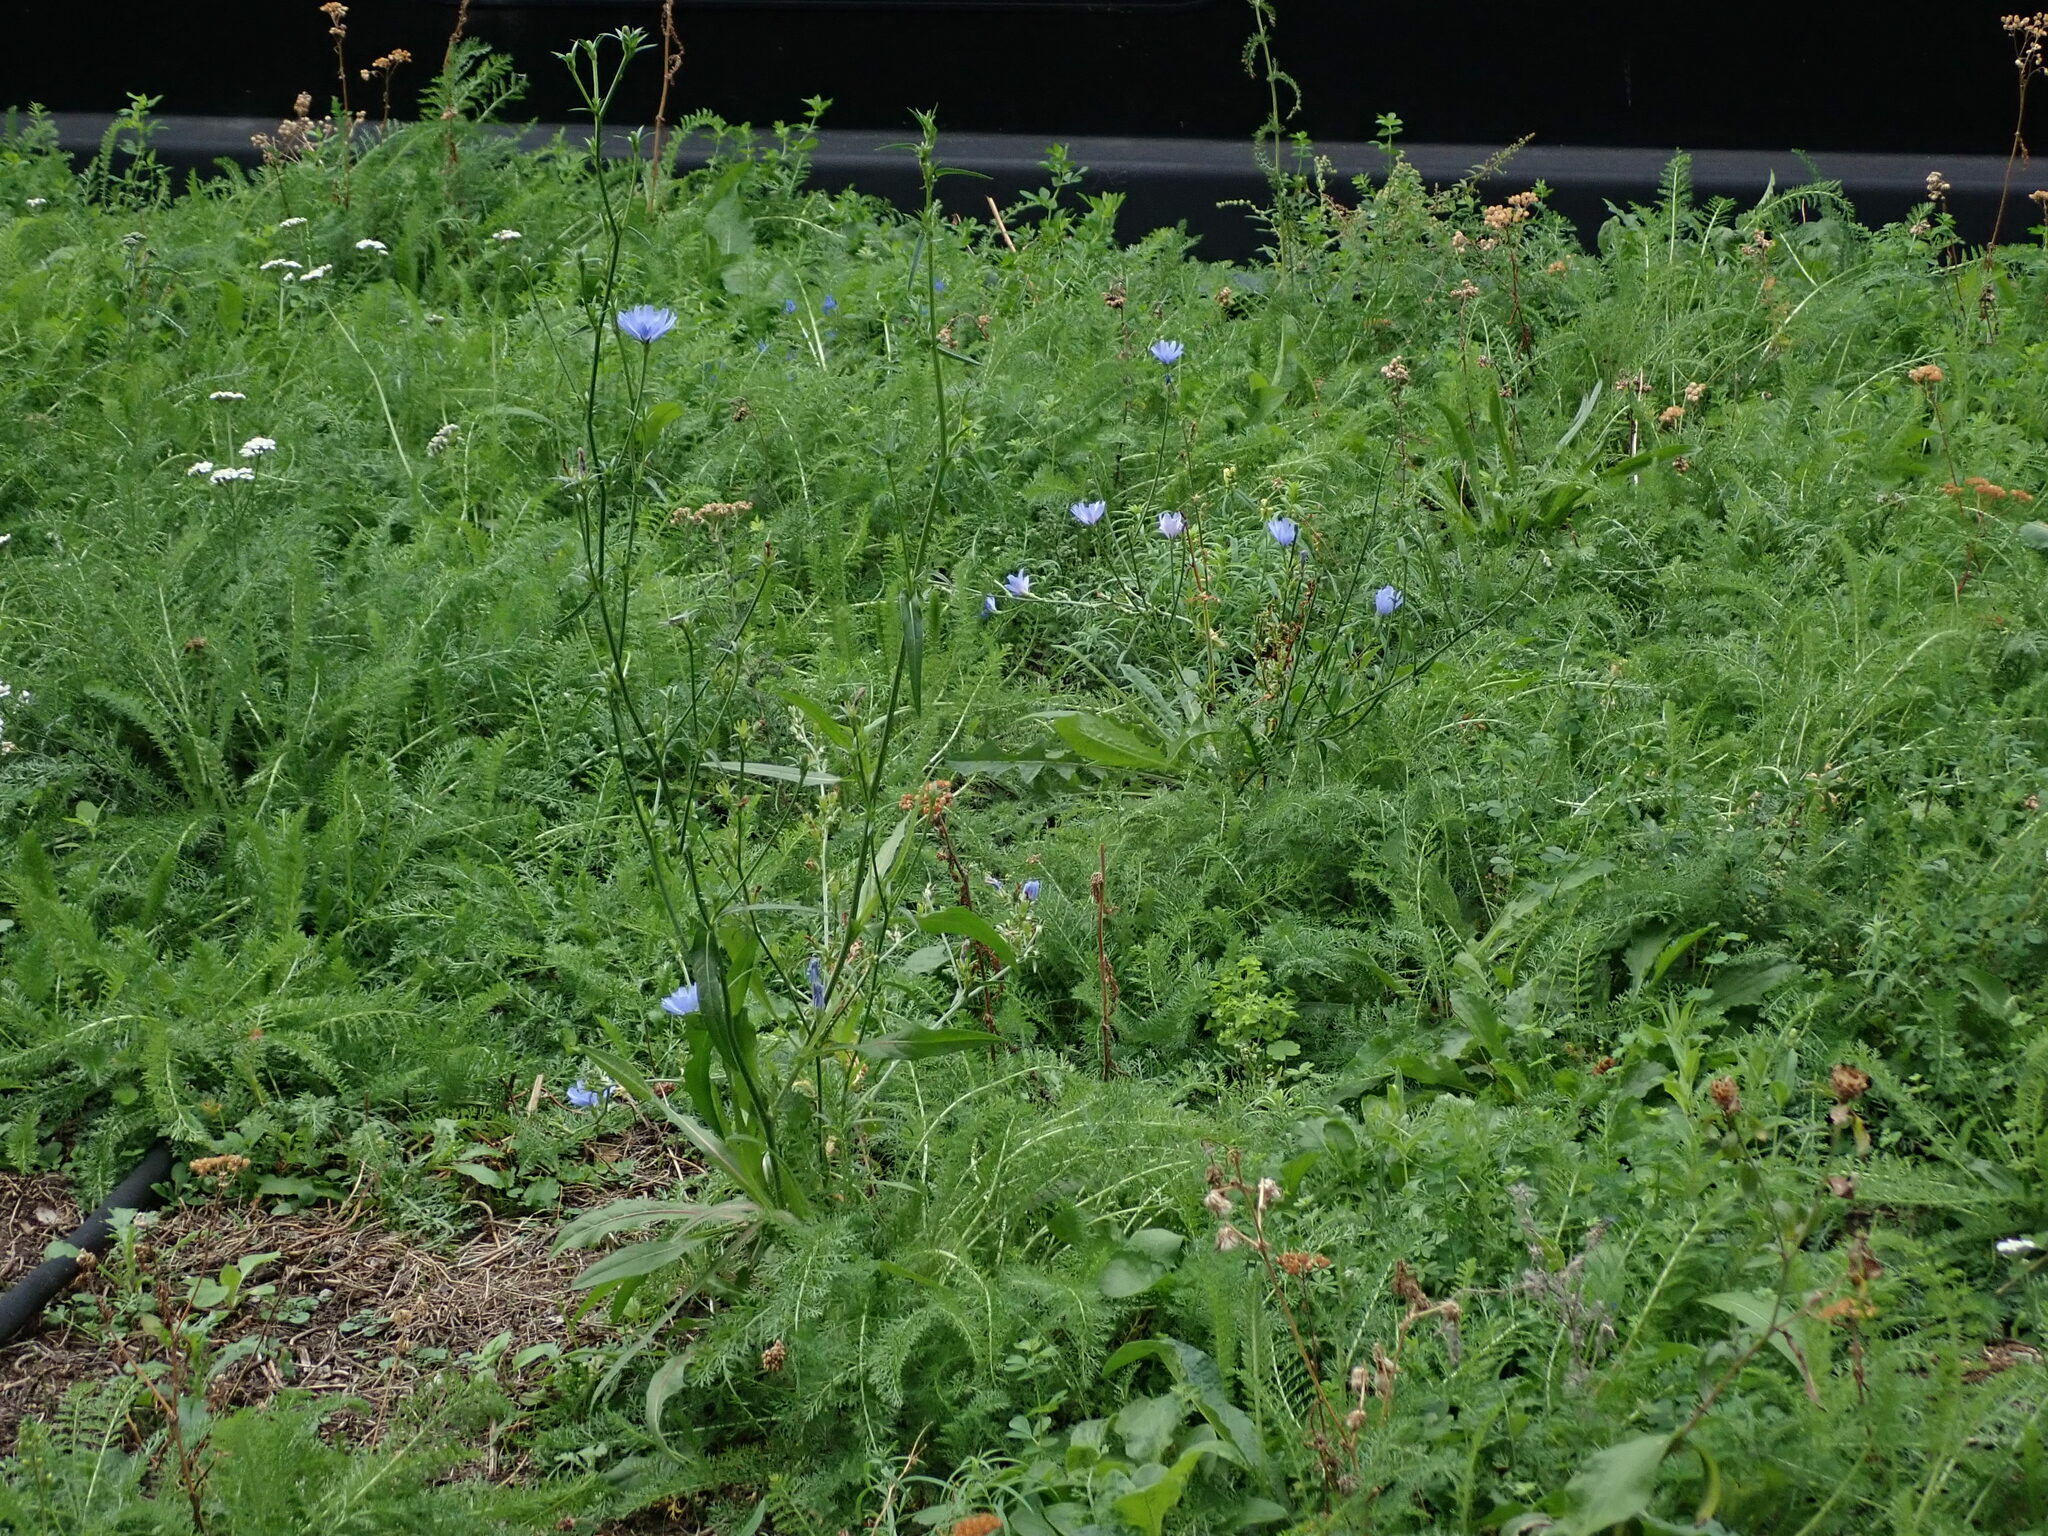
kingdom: Plantae
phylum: Tracheophyta
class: Magnoliopsida
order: Asterales
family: Asteraceae
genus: Cichorium
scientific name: Cichorium intybus
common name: Chicory
